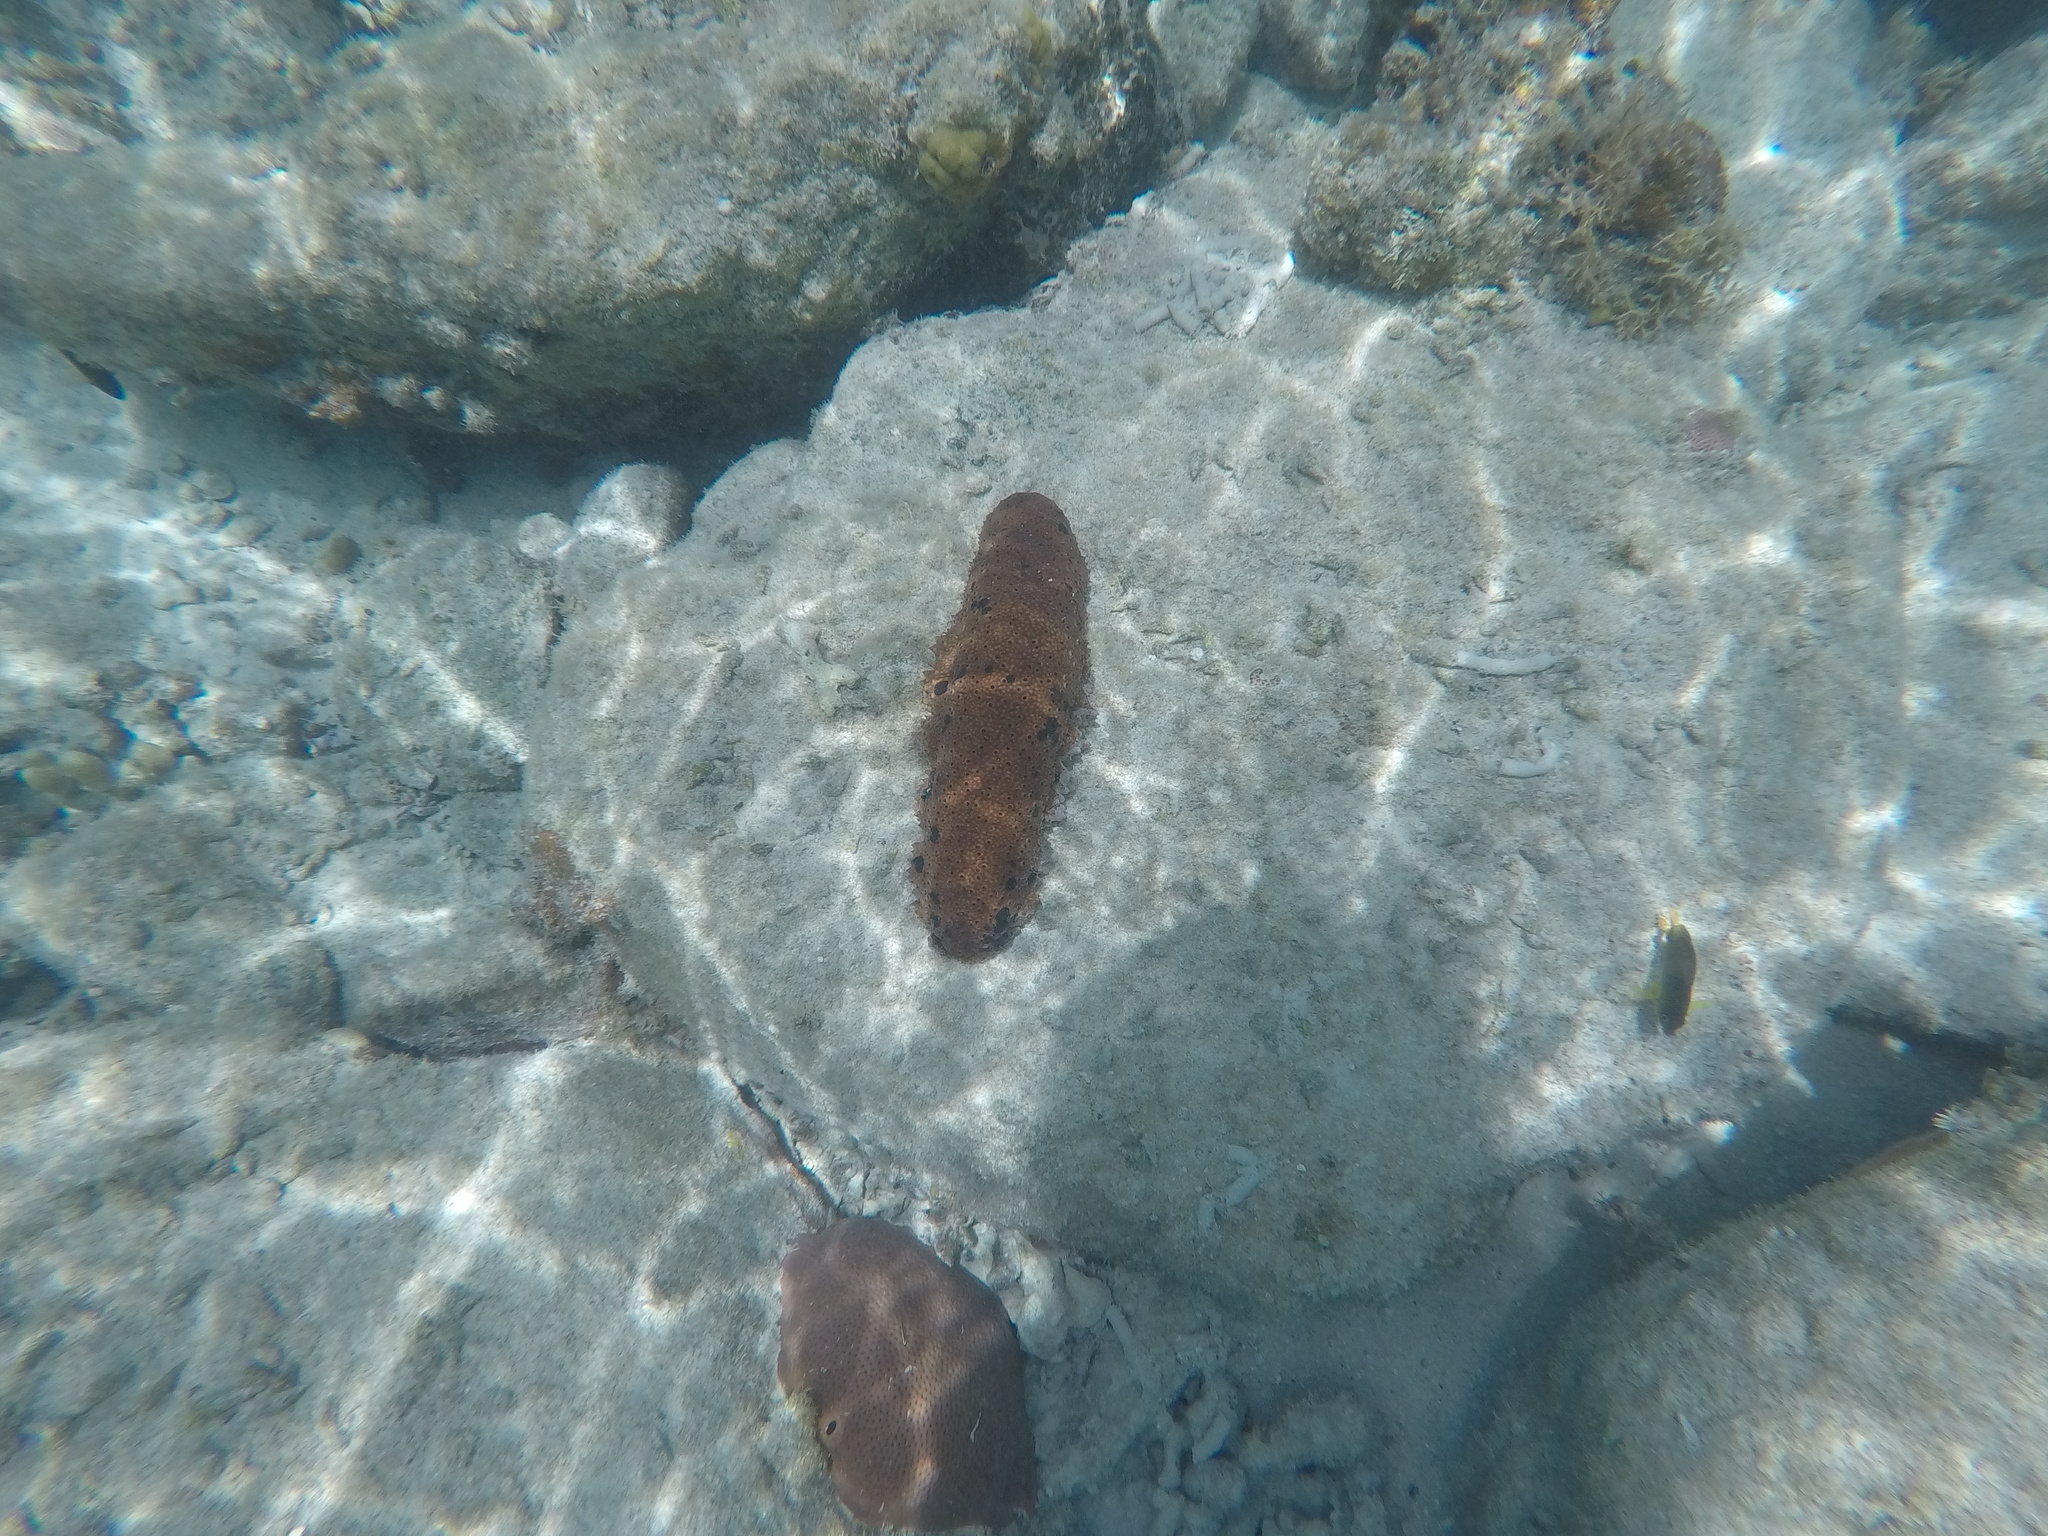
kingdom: Animalia
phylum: Echinodermata
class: Holothuroidea
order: Synallactida
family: Stichopodidae
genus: Isostichopus
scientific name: Isostichopus badionotus
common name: Chocolate chip cucumber
